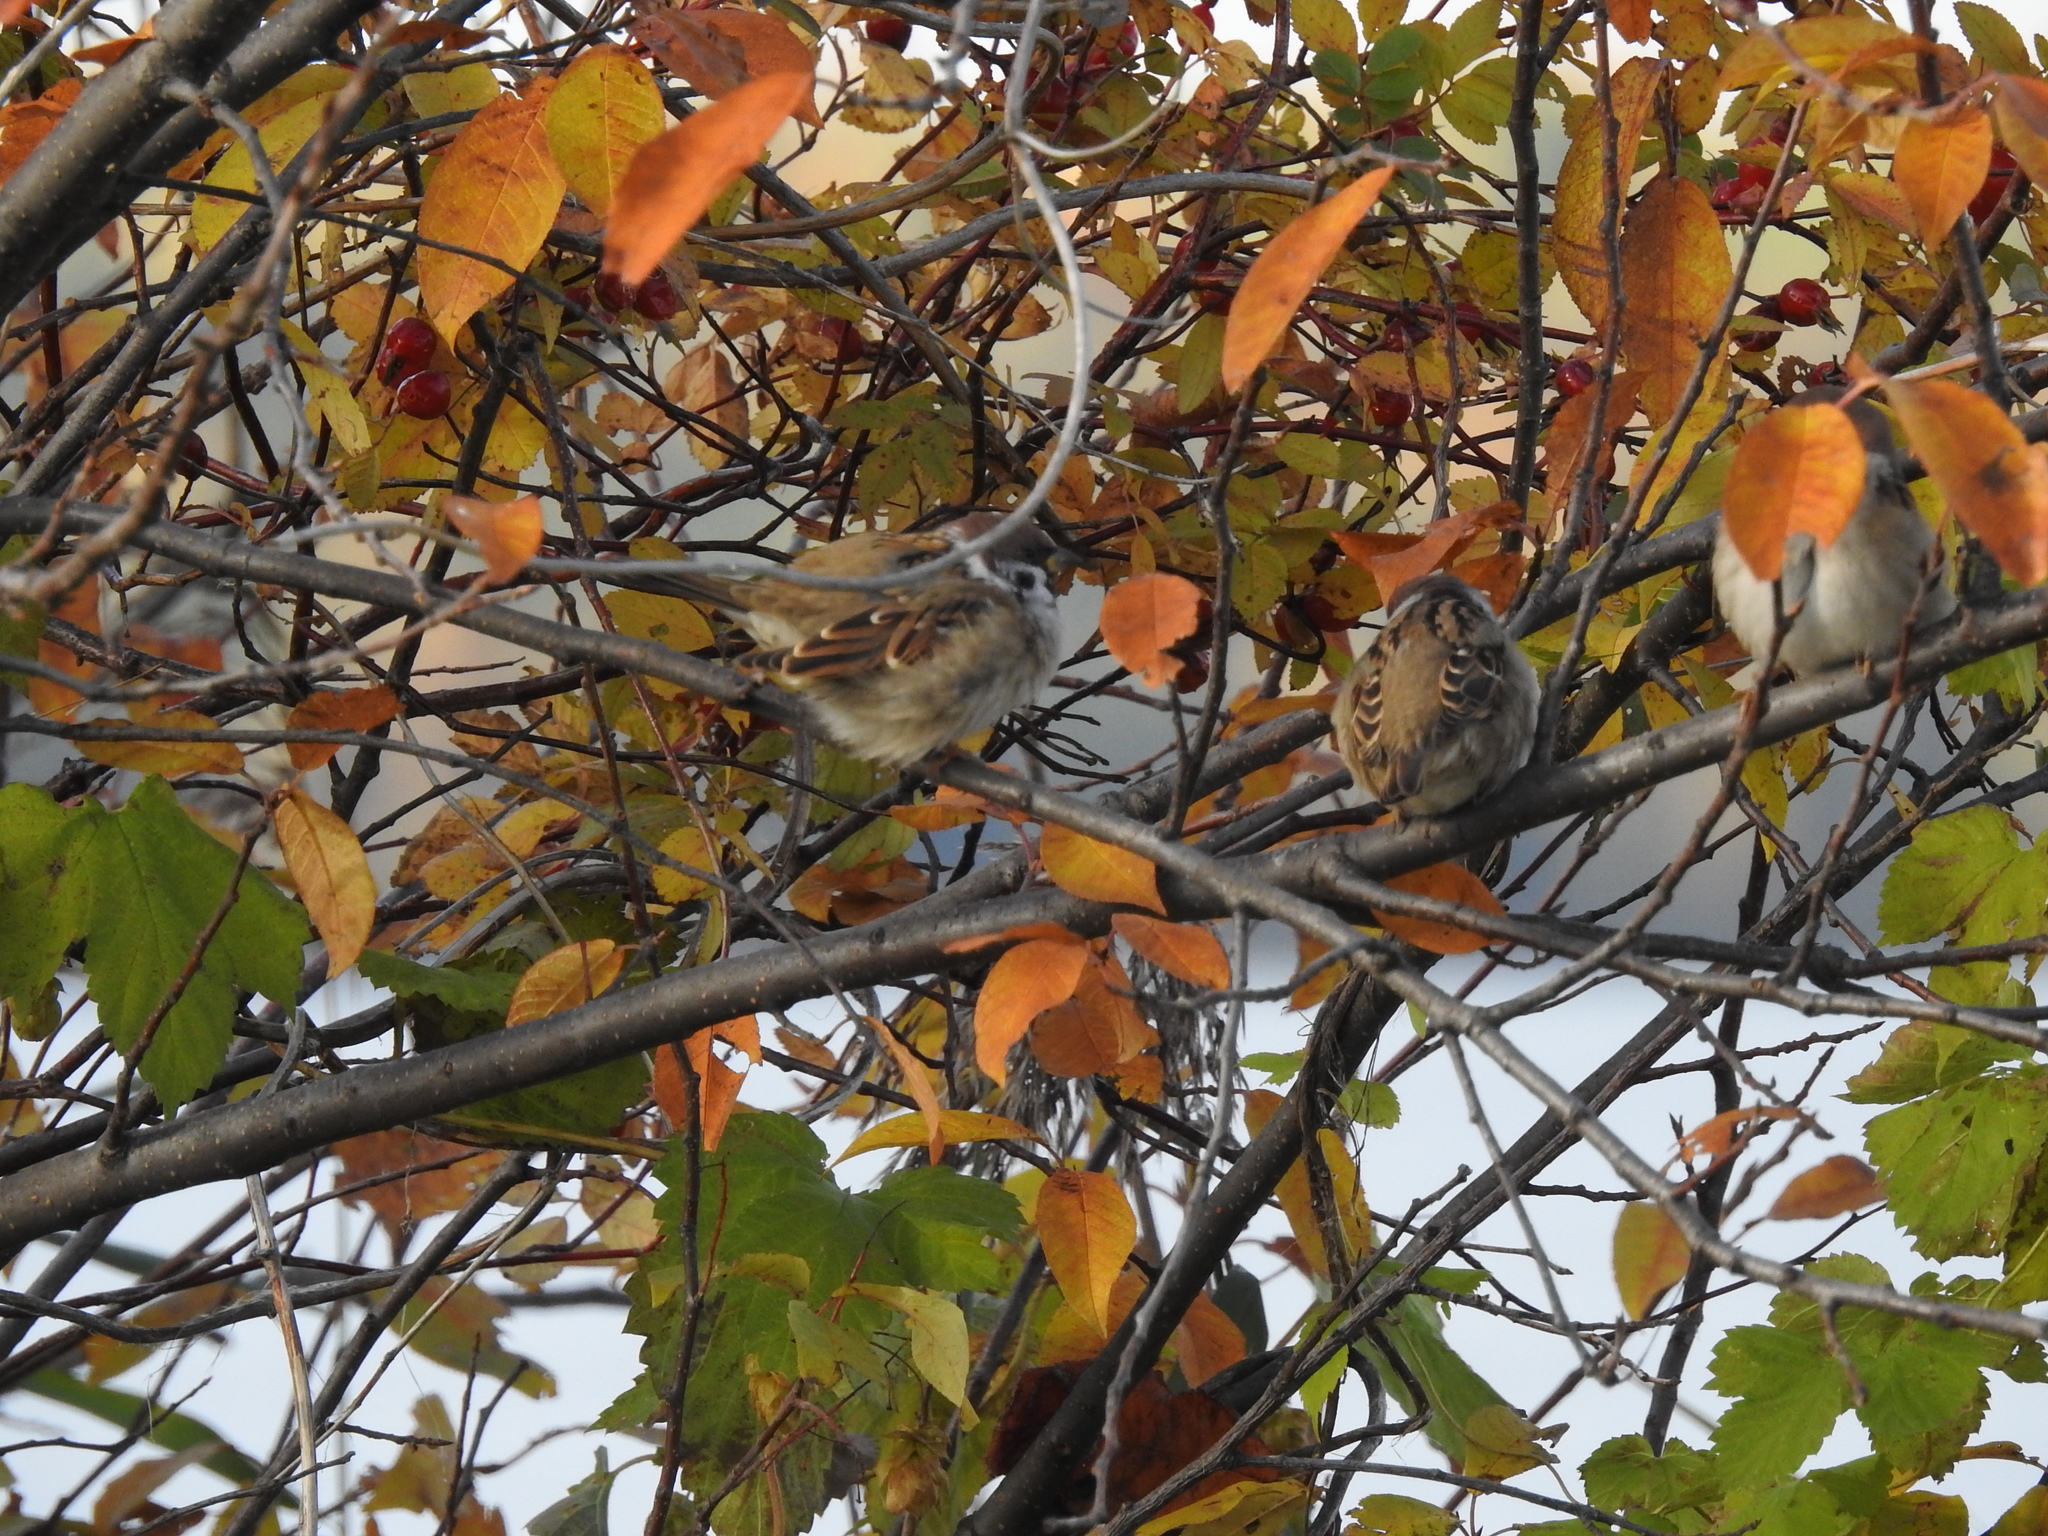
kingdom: Animalia
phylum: Chordata
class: Aves
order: Passeriformes
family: Passeridae
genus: Passer
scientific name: Passer montanus
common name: Eurasian tree sparrow
